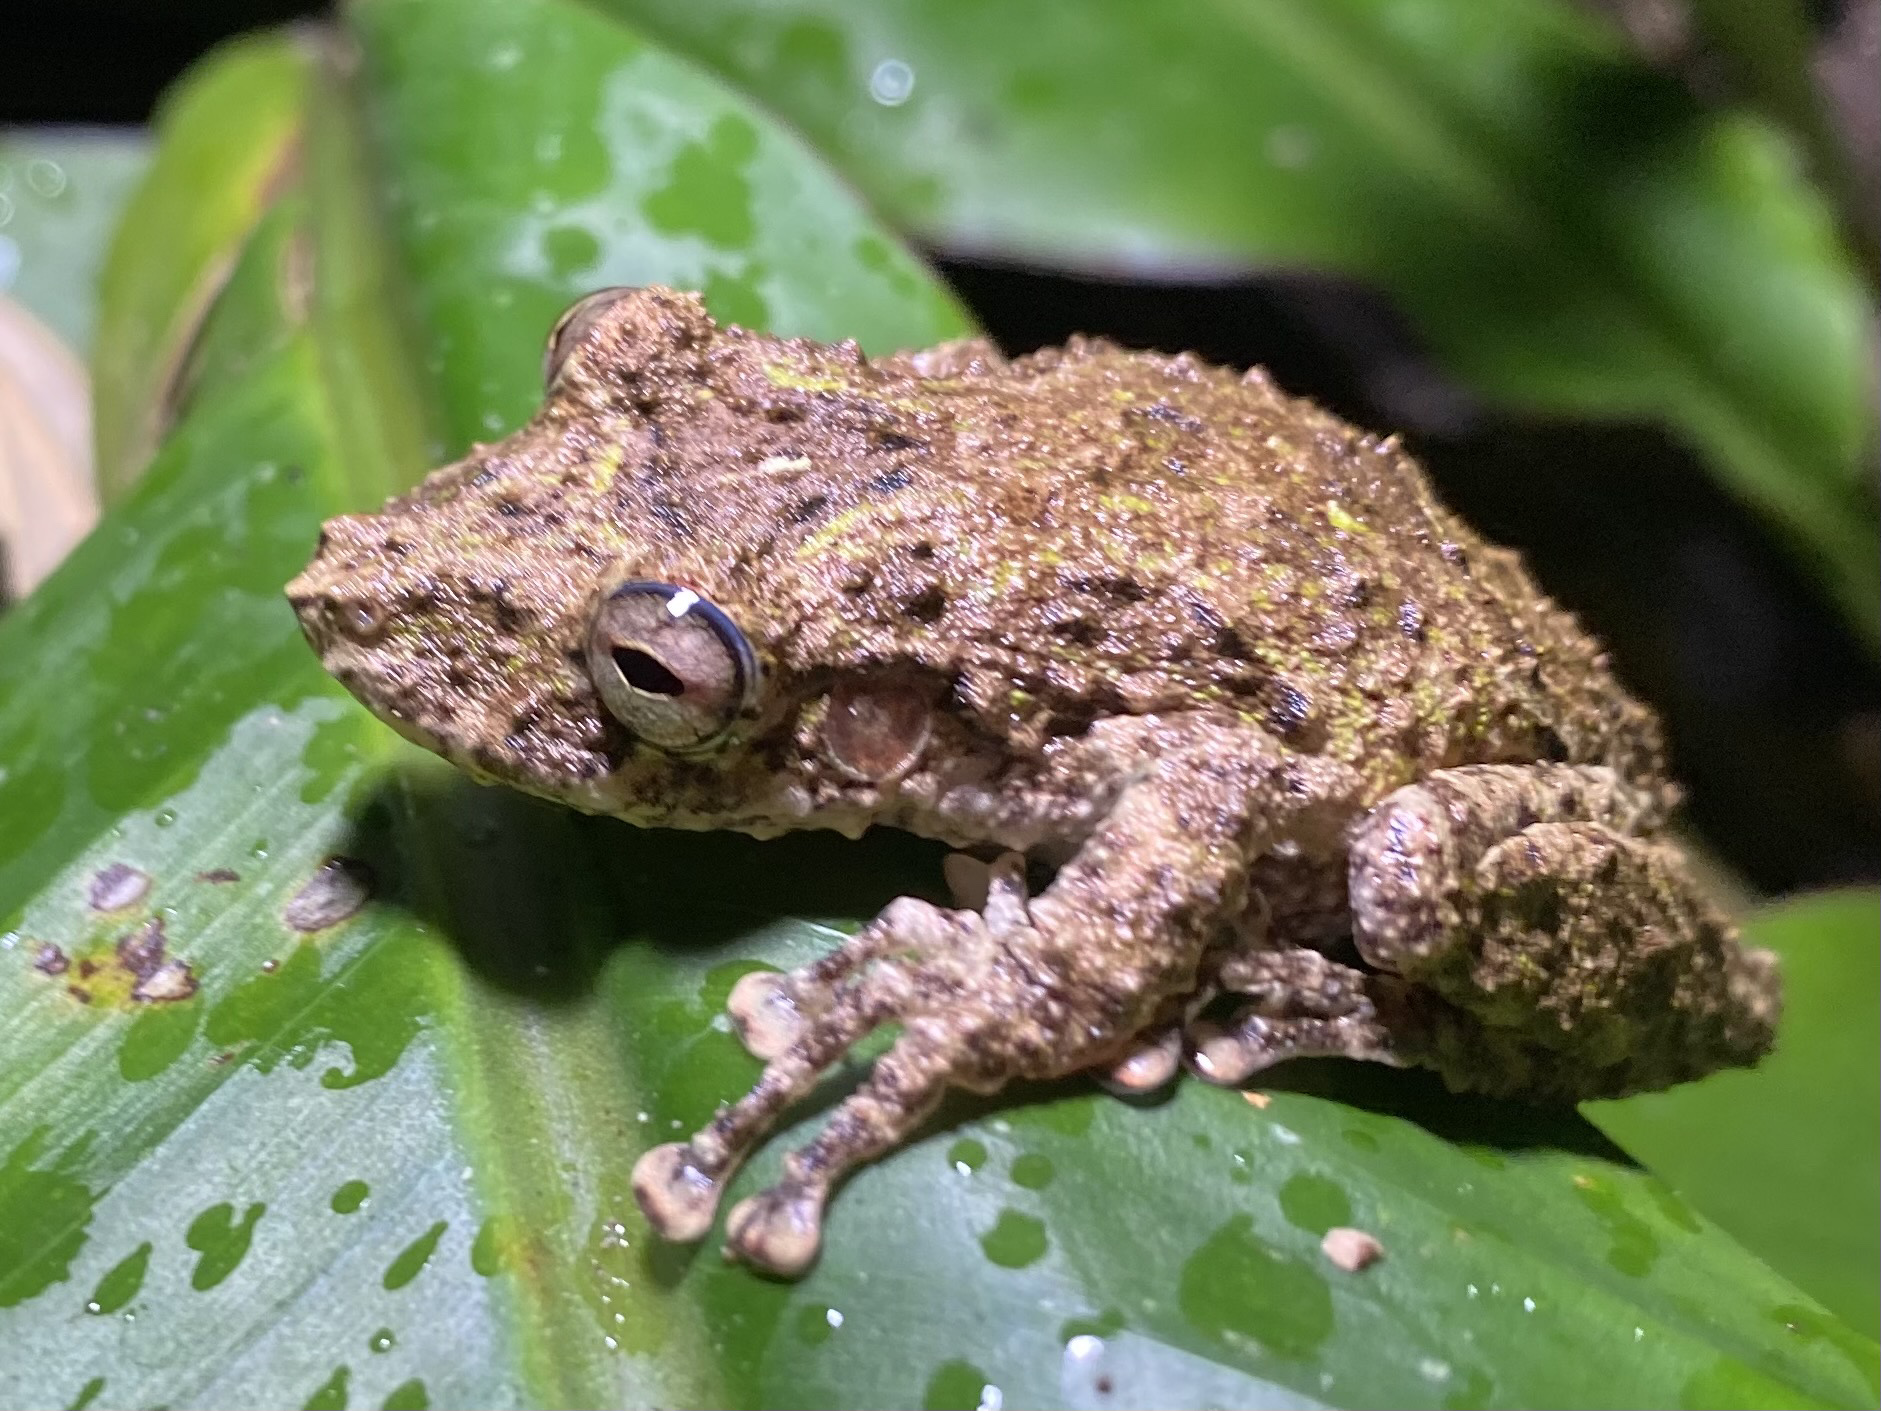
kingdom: Animalia
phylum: Chordata
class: Amphibia
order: Anura
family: Hylidae
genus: Scinax
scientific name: Scinax boulengeri
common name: Boulenger's snouted treefrog
